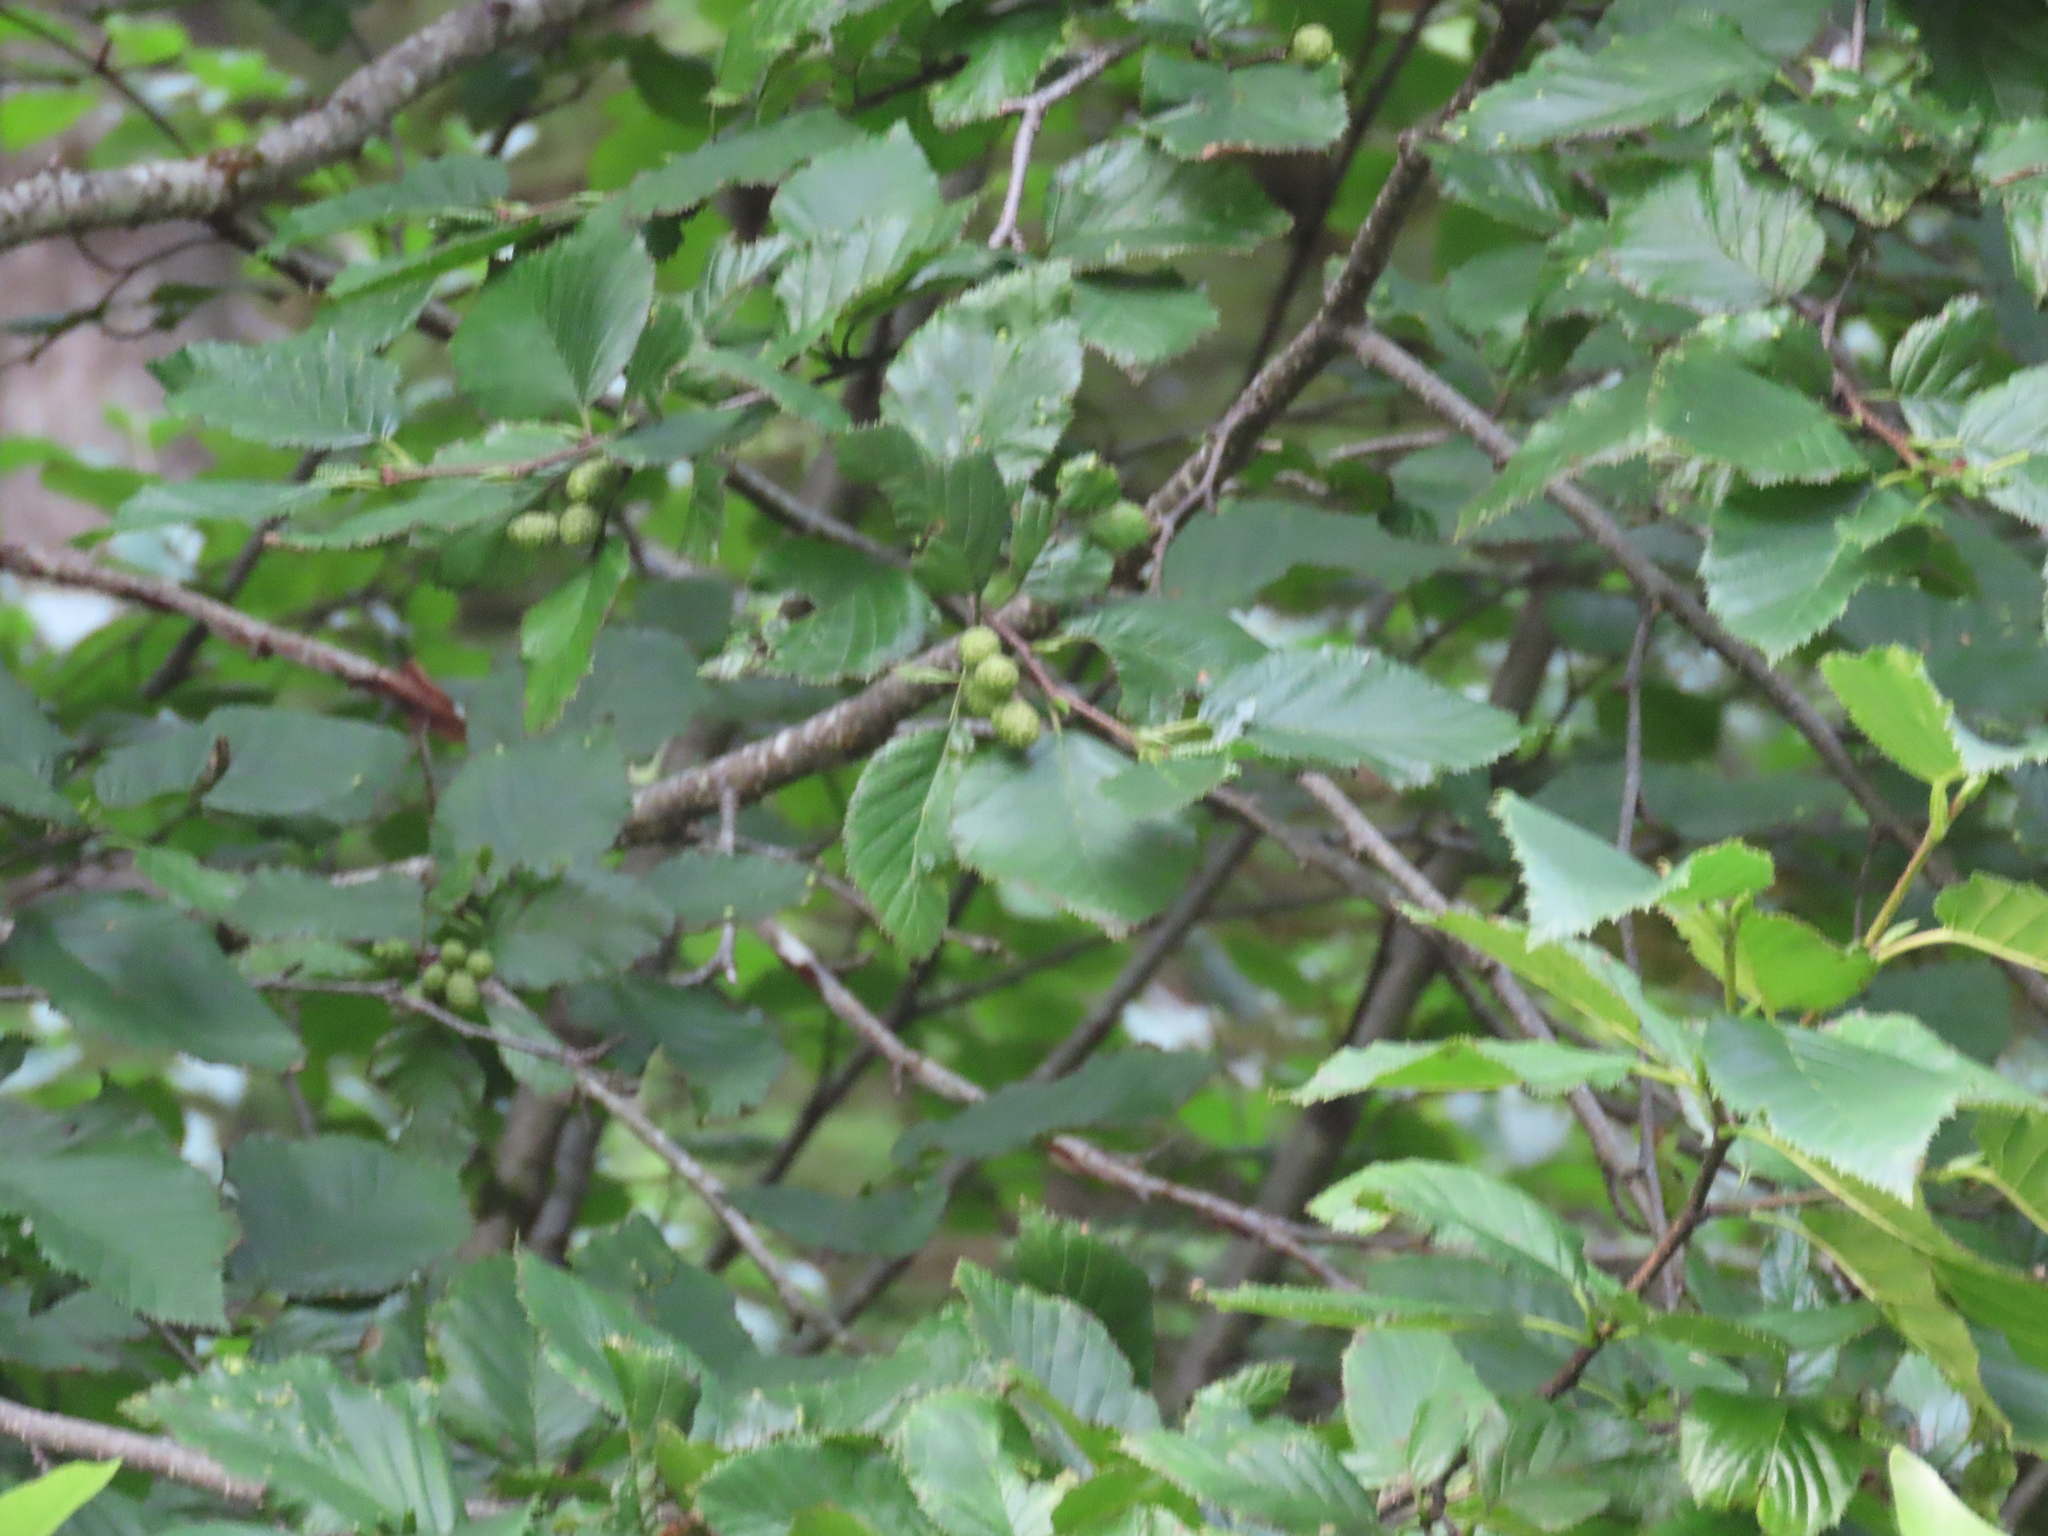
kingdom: Plantae
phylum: Tracheophyta
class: Magnoliopsida
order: Fagales
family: Betulaceae
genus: Alnus
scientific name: Alnus alnobetula
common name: Green alder
